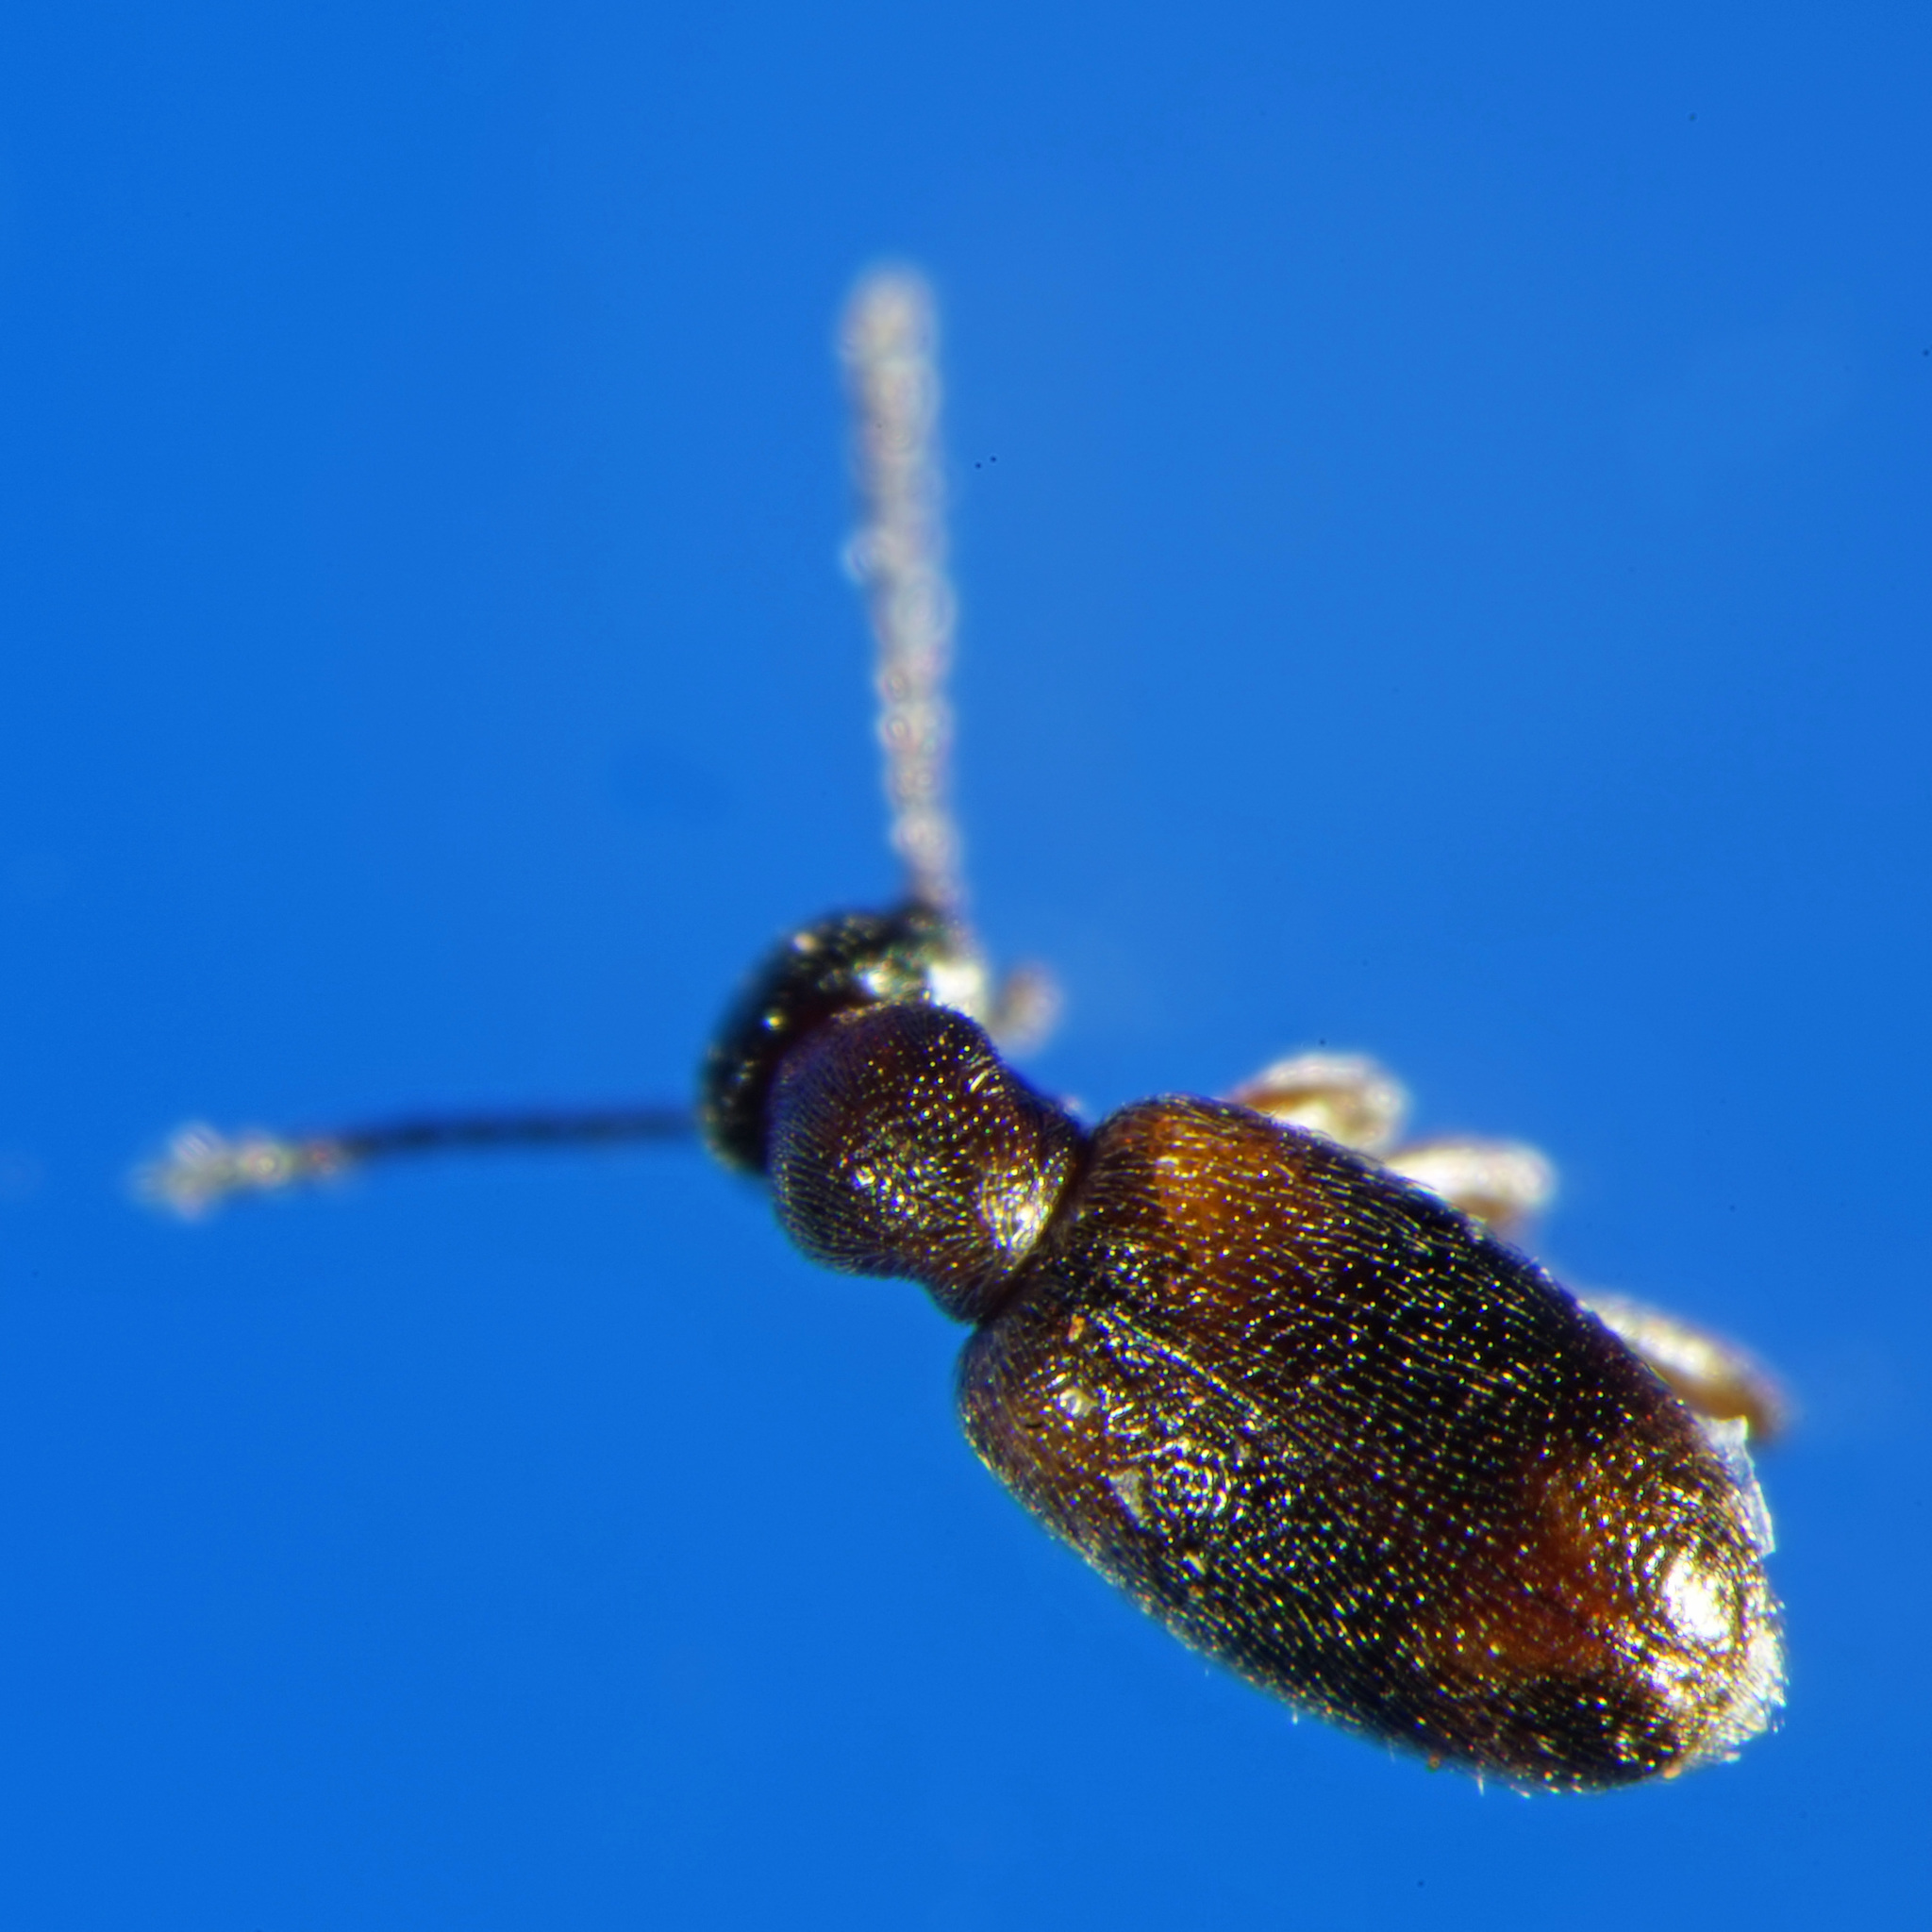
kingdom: Animalia
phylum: Arthropoda
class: Insecta
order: Coleoptera
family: Anthicidae
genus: Anthicus
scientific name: Anthicus axillaris
